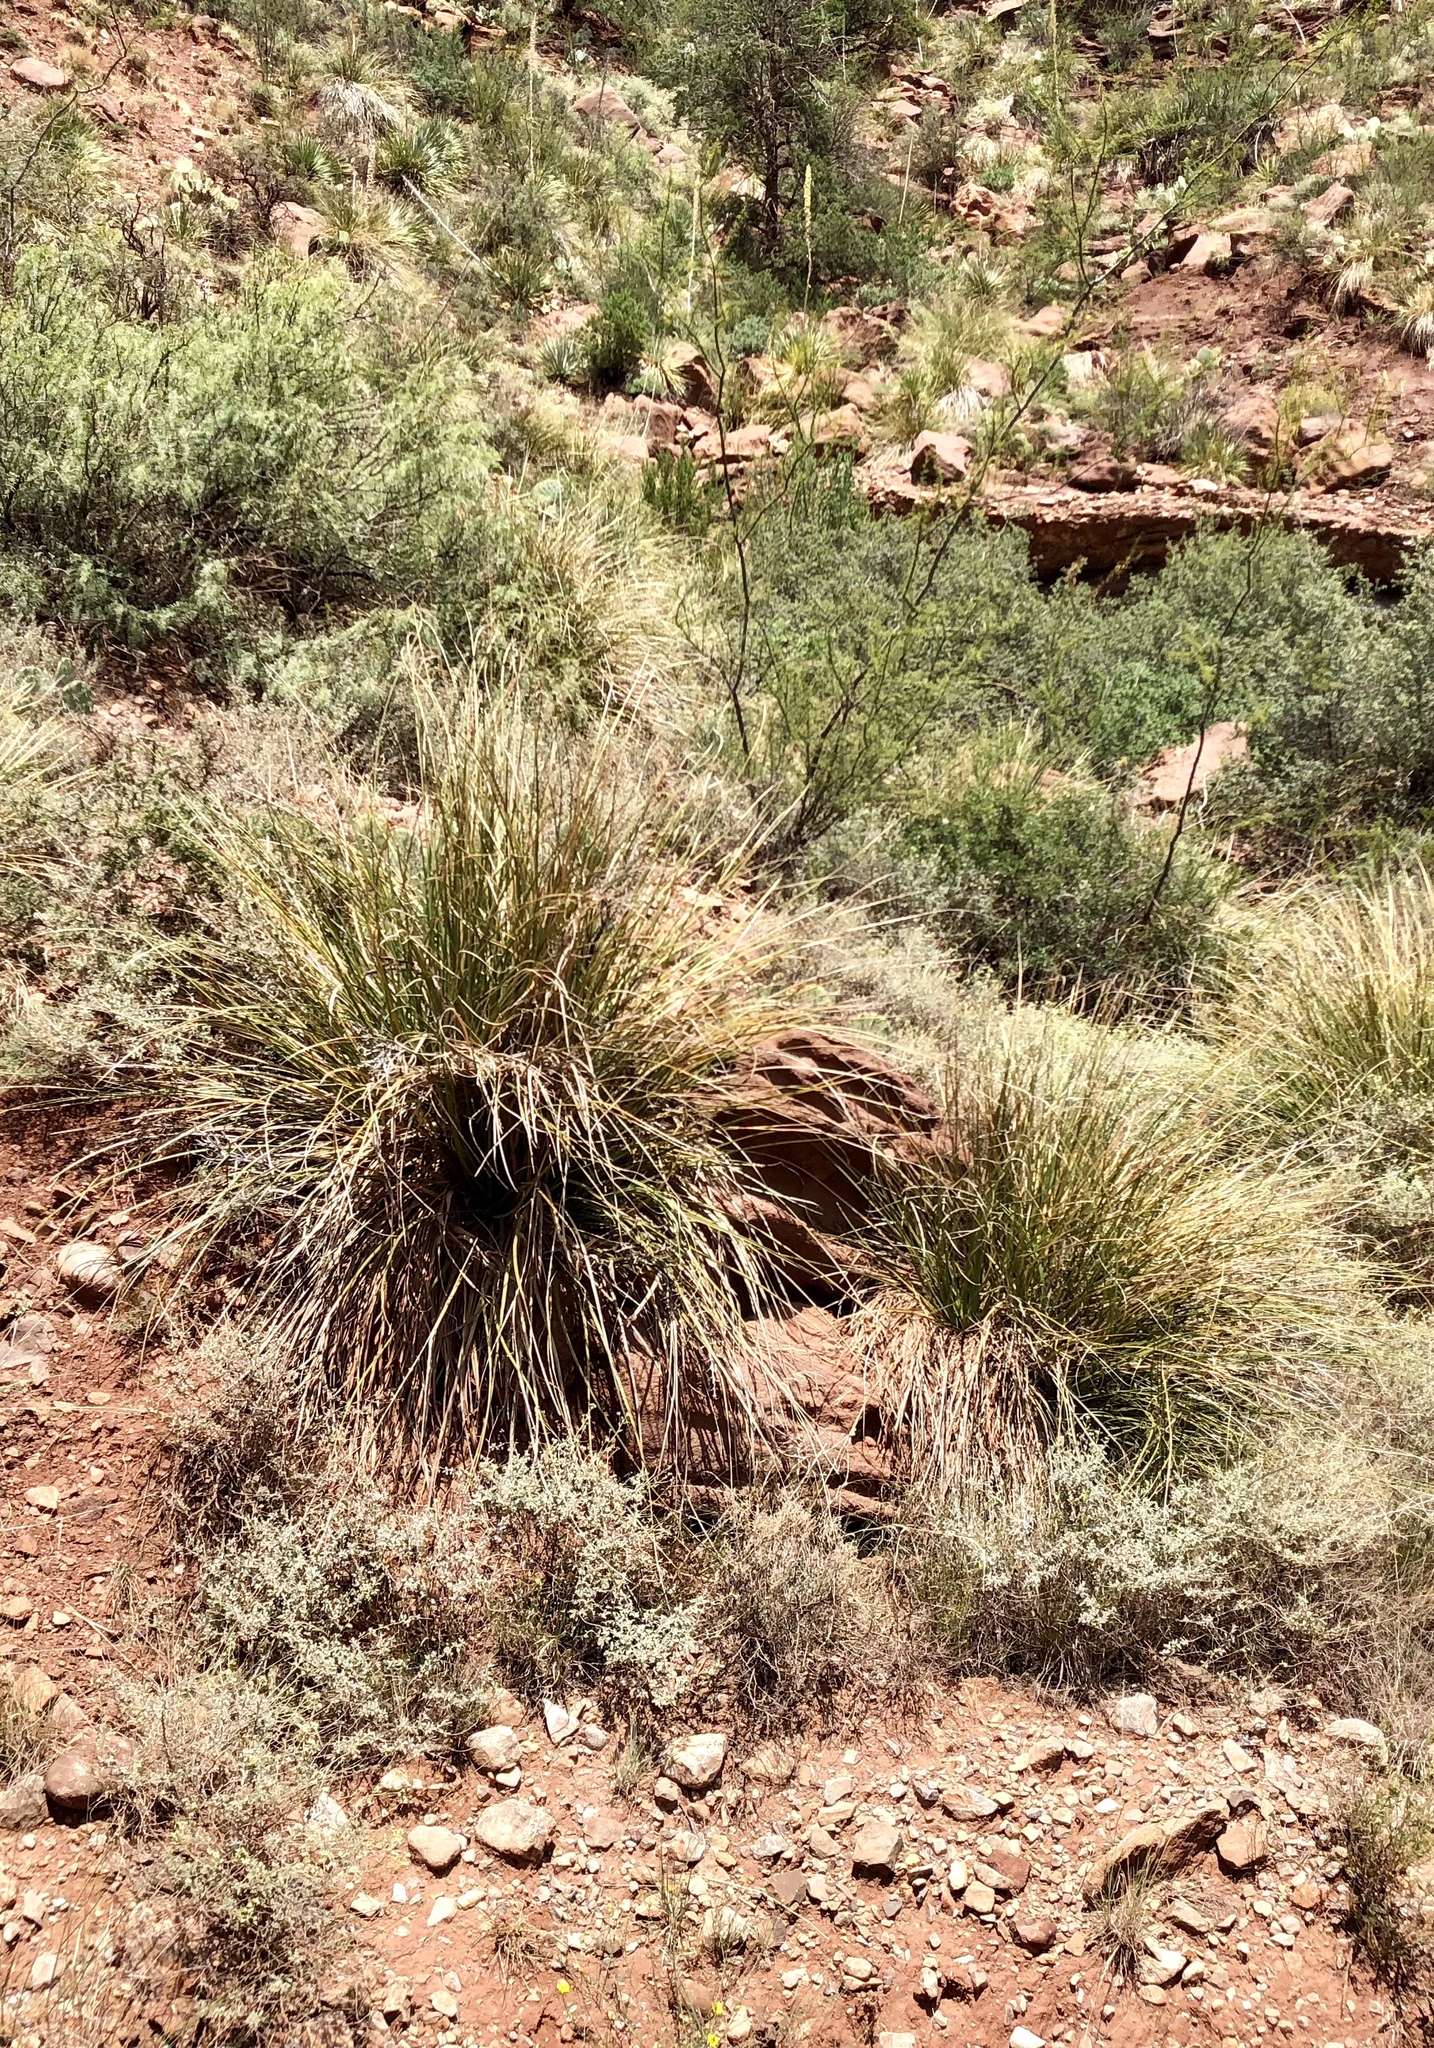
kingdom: Plantae
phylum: Tracheophyta
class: Liliopsida
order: Asparagales
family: Asparagaceae
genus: Nolina
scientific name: Nolina microcarpa
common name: Bear-grass
